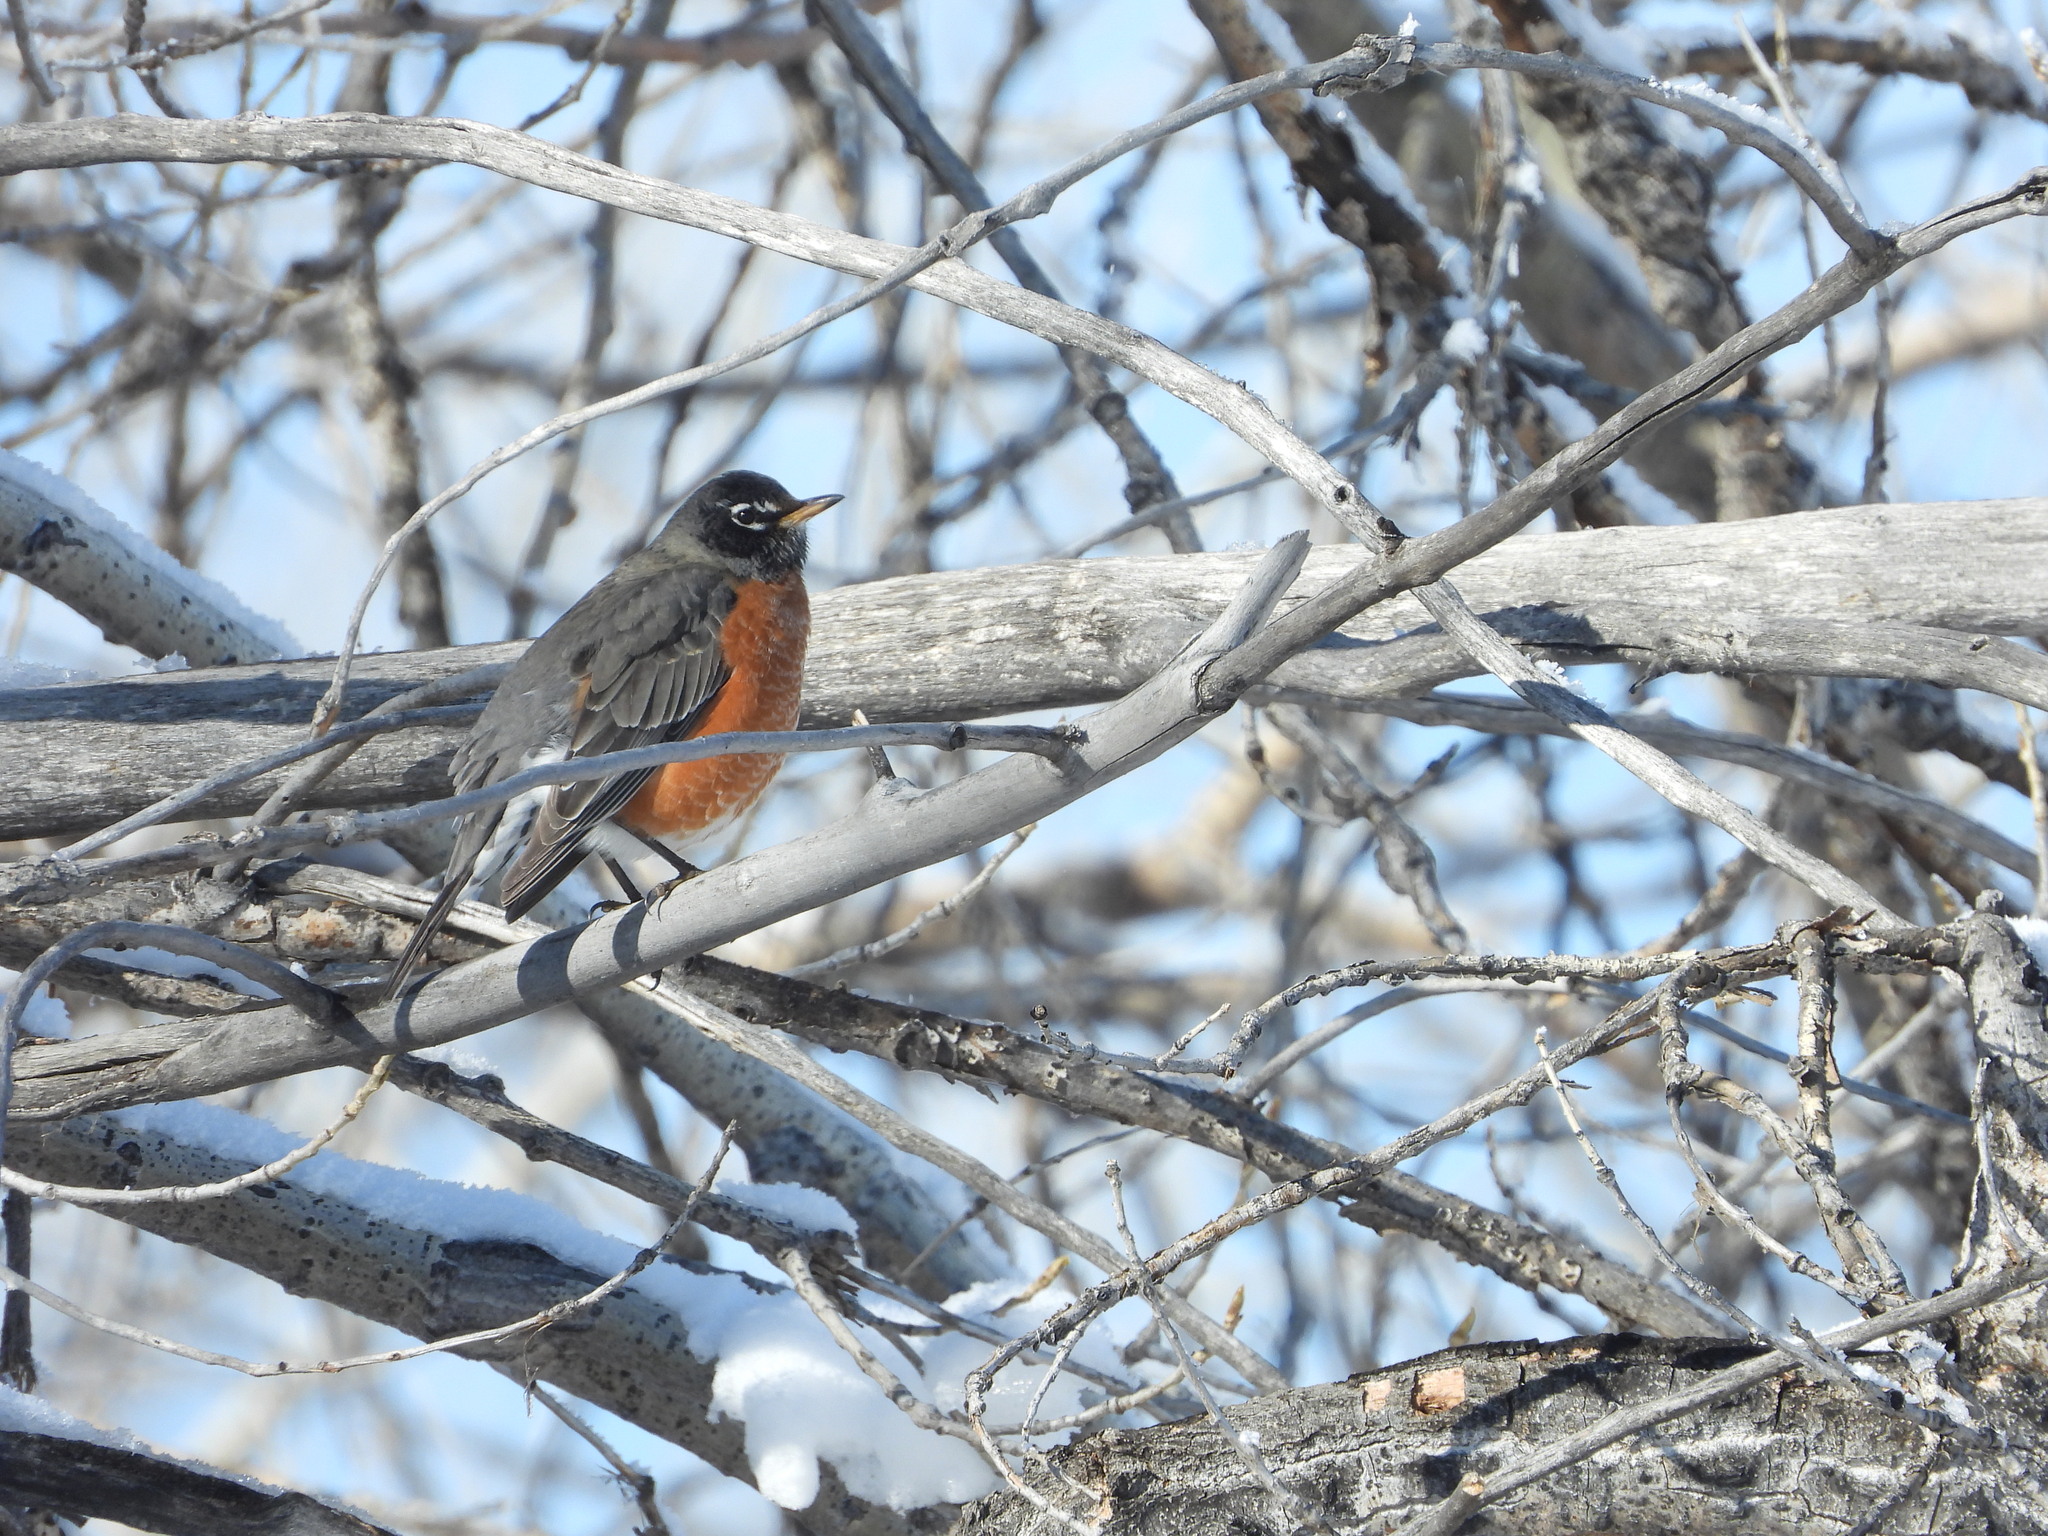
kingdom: Animalia
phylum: Chordata
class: Aves
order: Passeriformes
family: Turdidae
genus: Turdus
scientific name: Turdus migratorius
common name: American robin
